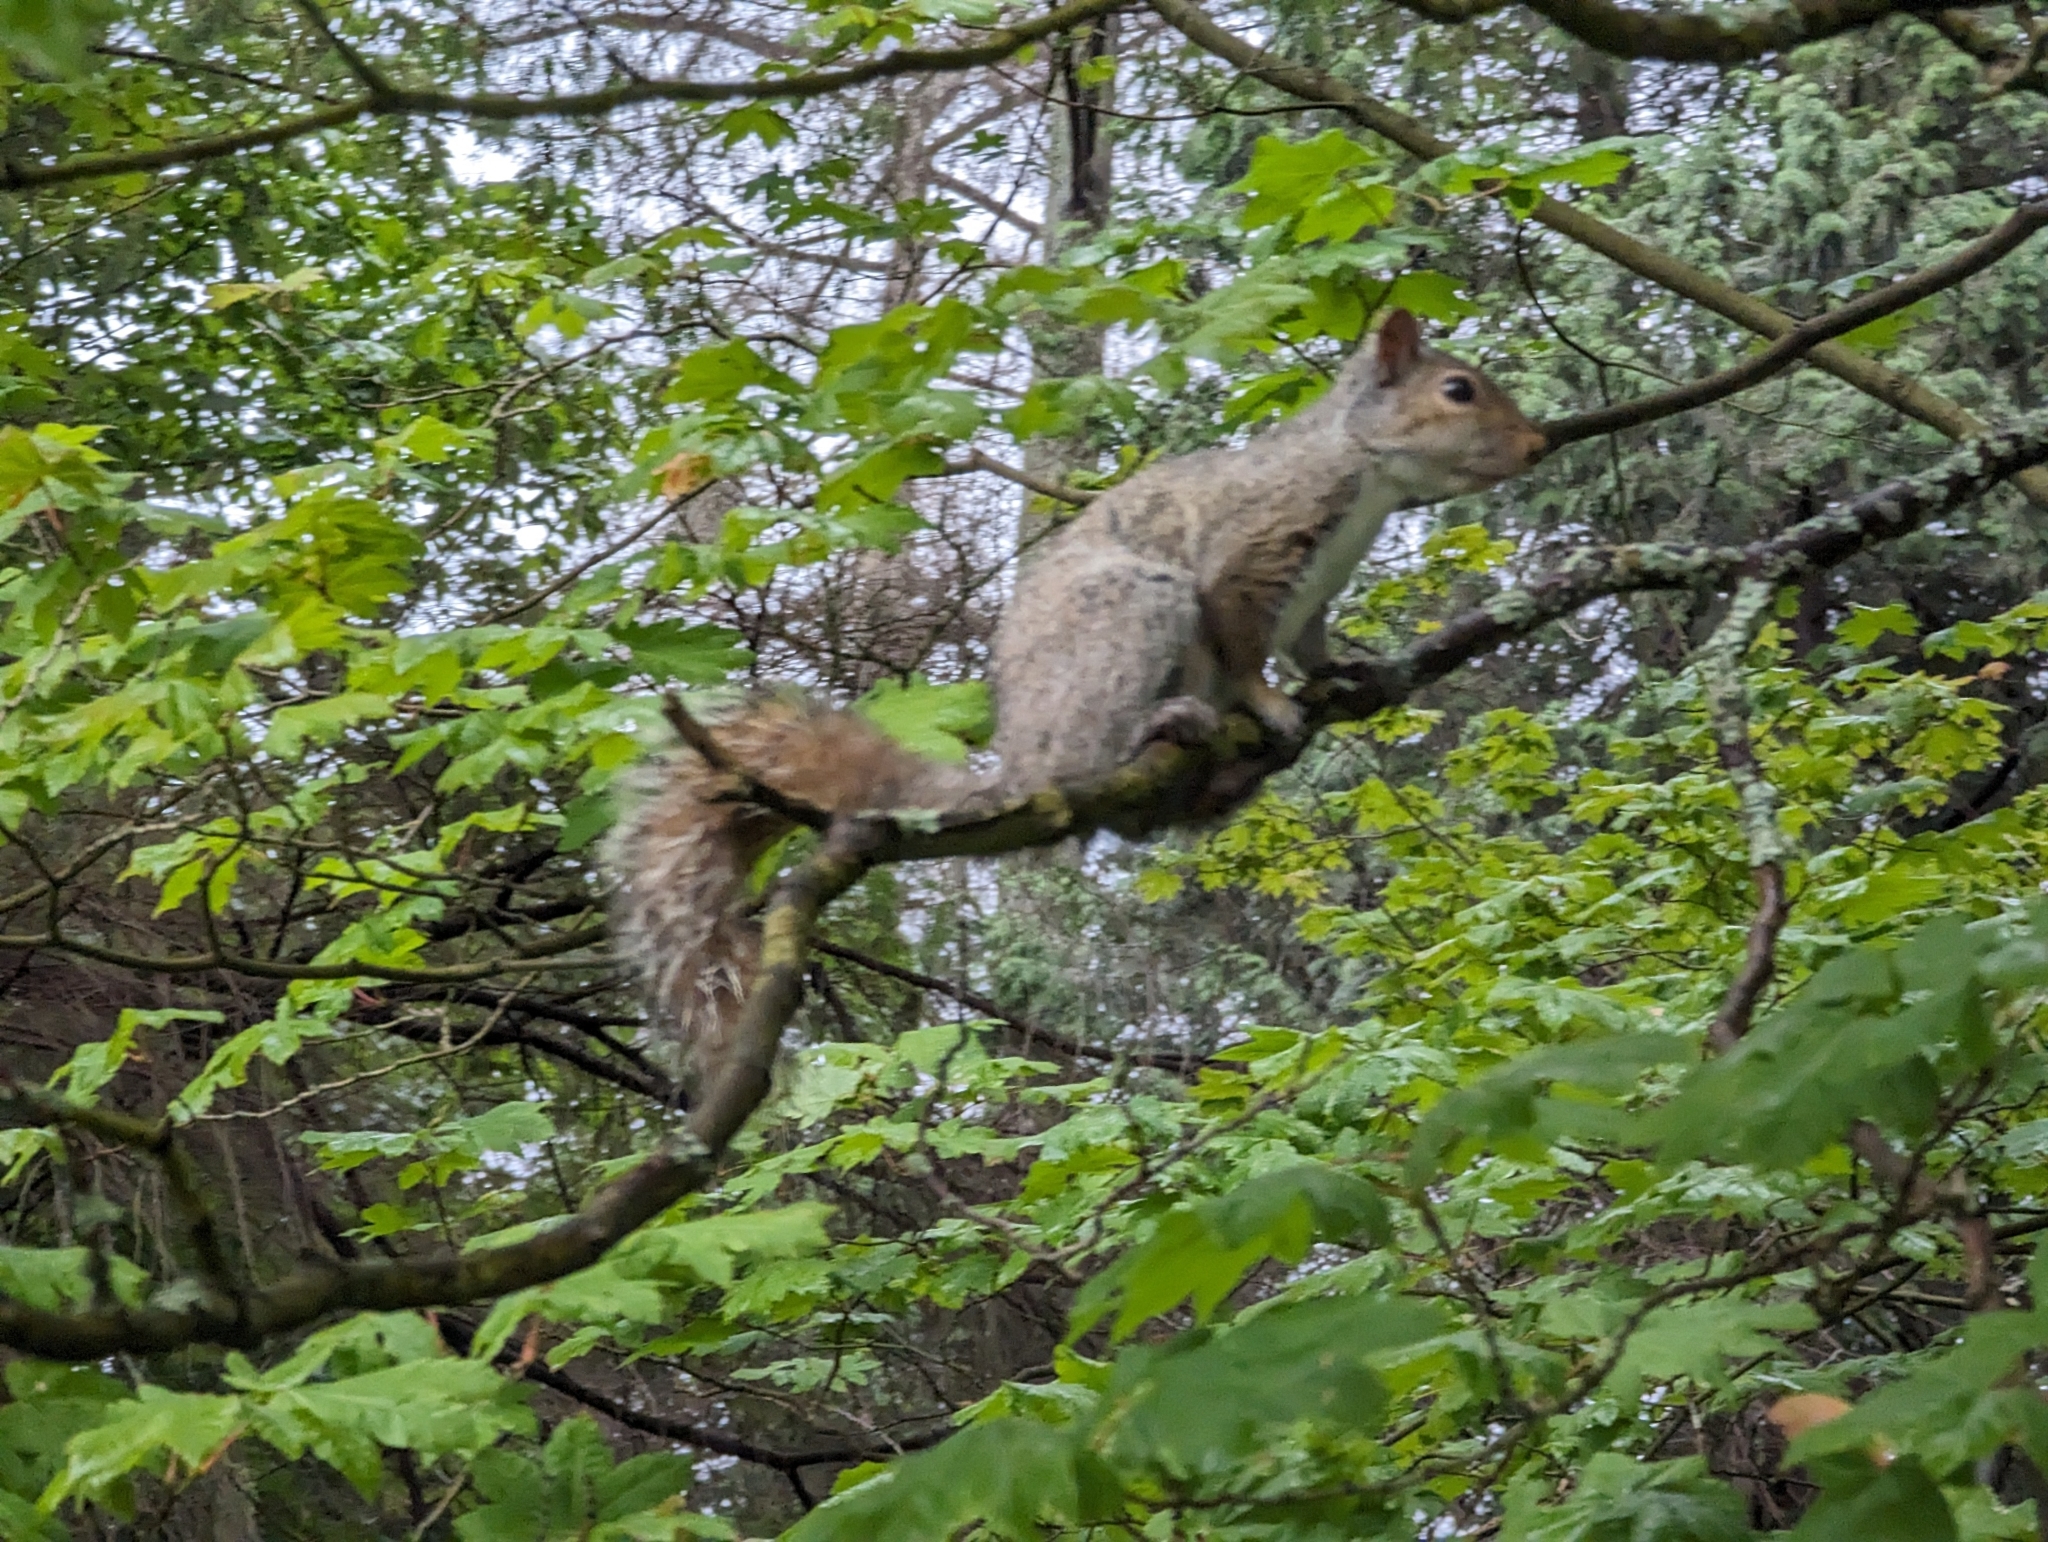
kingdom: Animalia
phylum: Chordata
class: Mammalia
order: Rodentia
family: Sciuridae
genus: Sciurus
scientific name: Sciurus carolinensis
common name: Eastern gray squirrel
